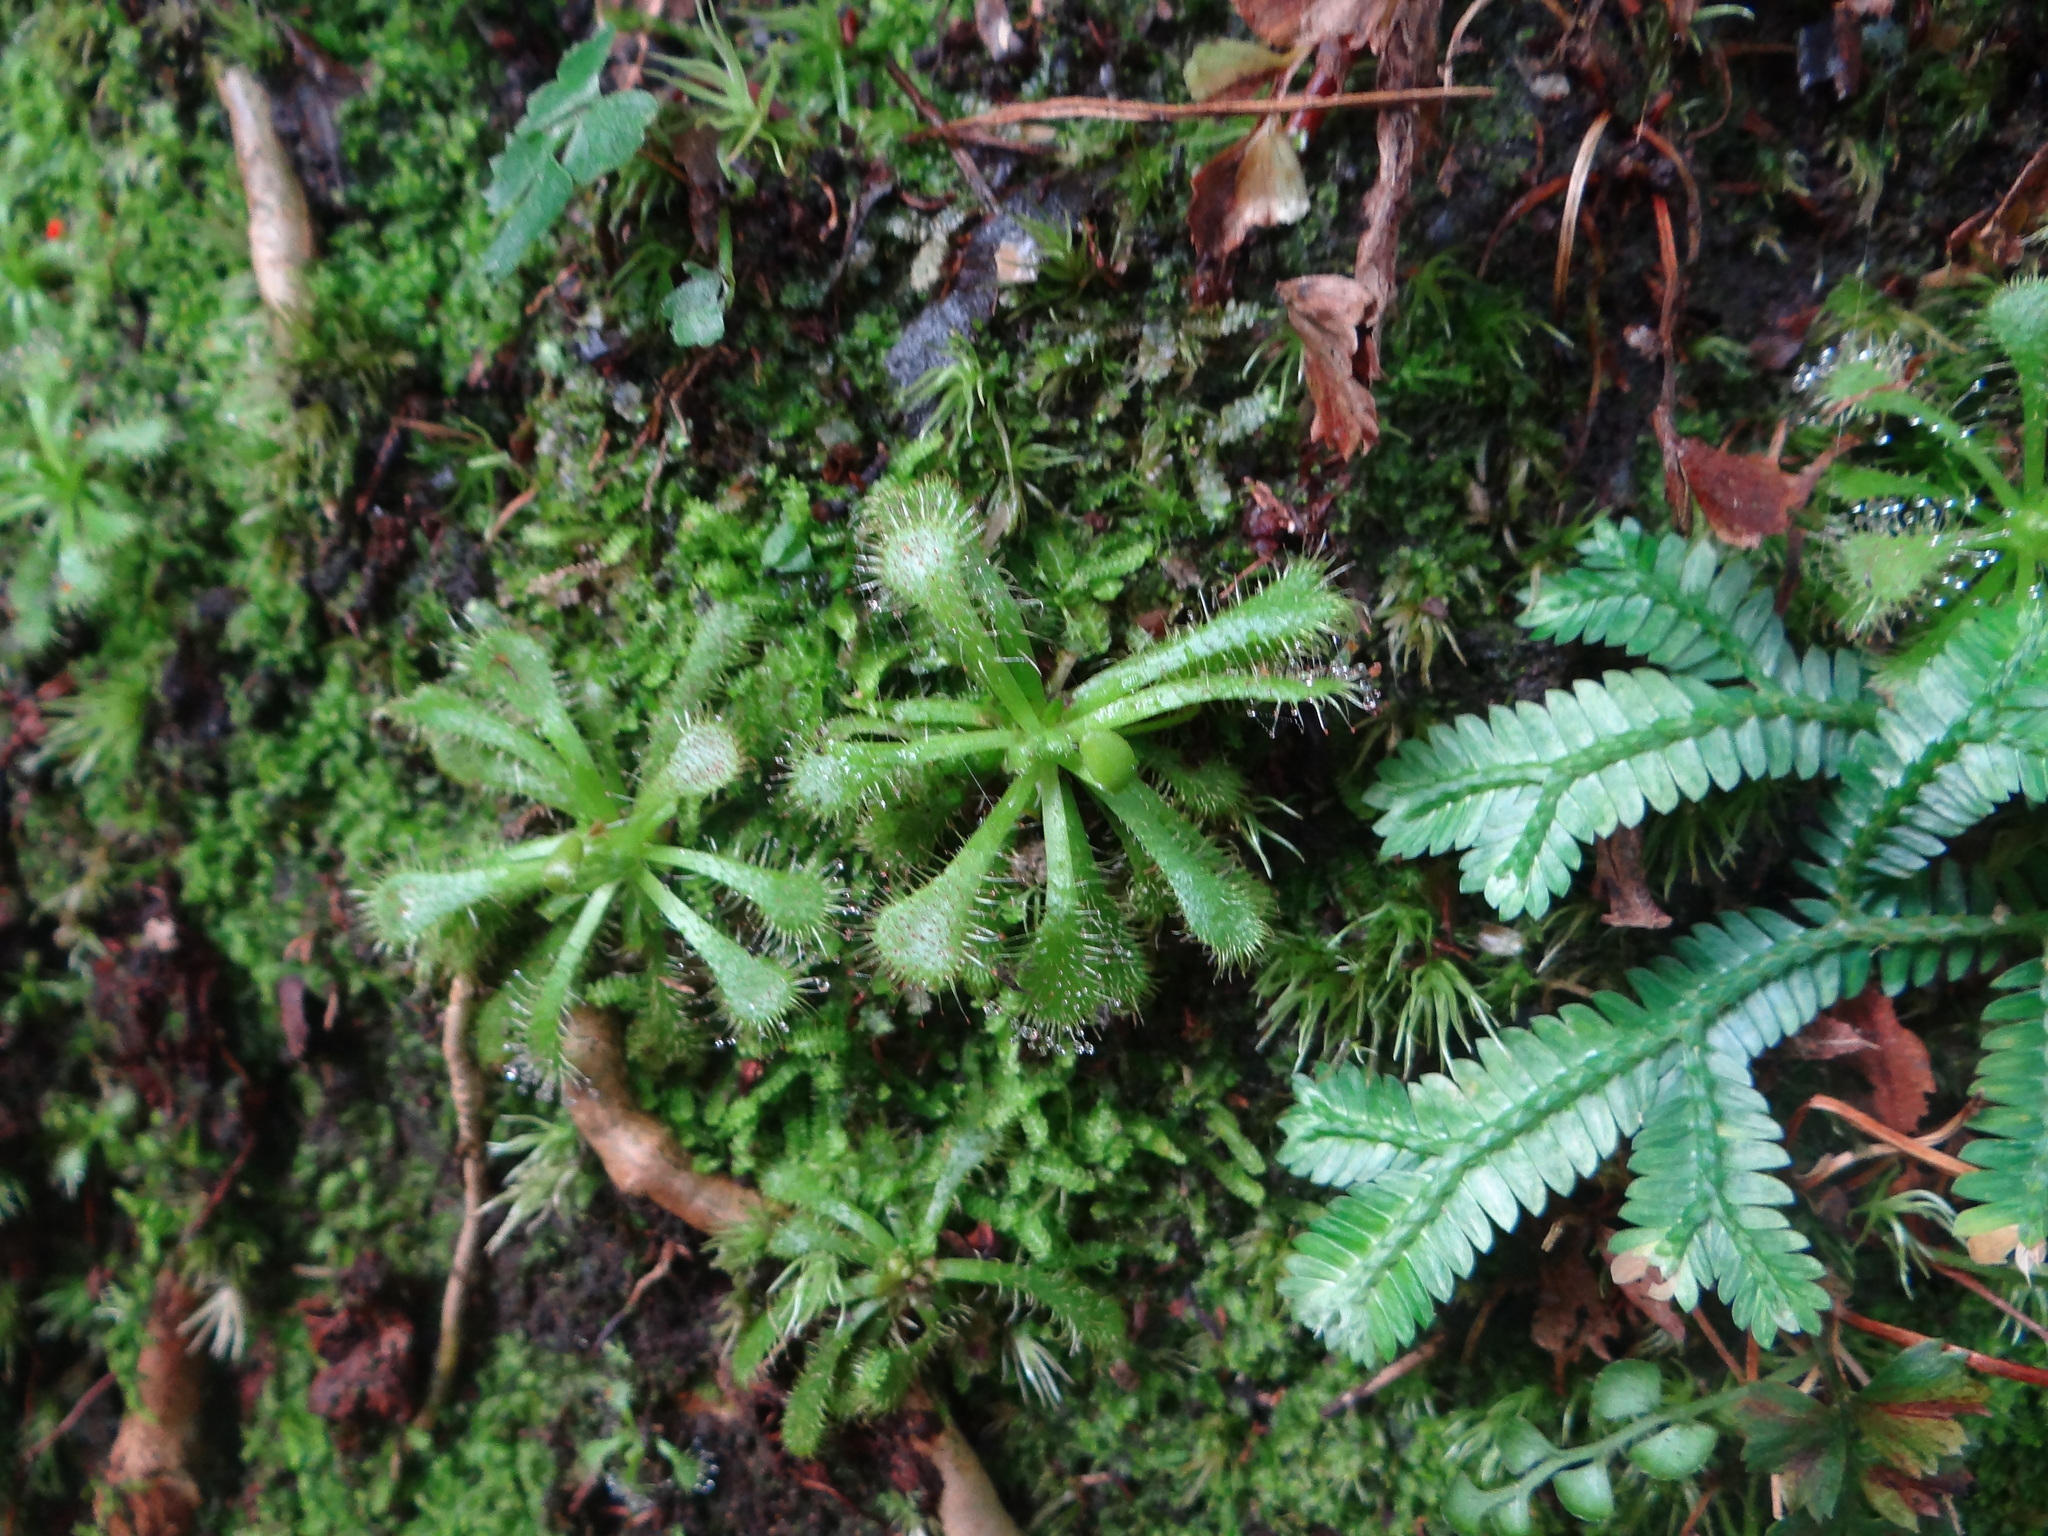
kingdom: Plantae
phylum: Tracheophyta
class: Magnoliopsida
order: Caryophyllales
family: Droseraceae
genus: Drosera
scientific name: Drosera spatulata
